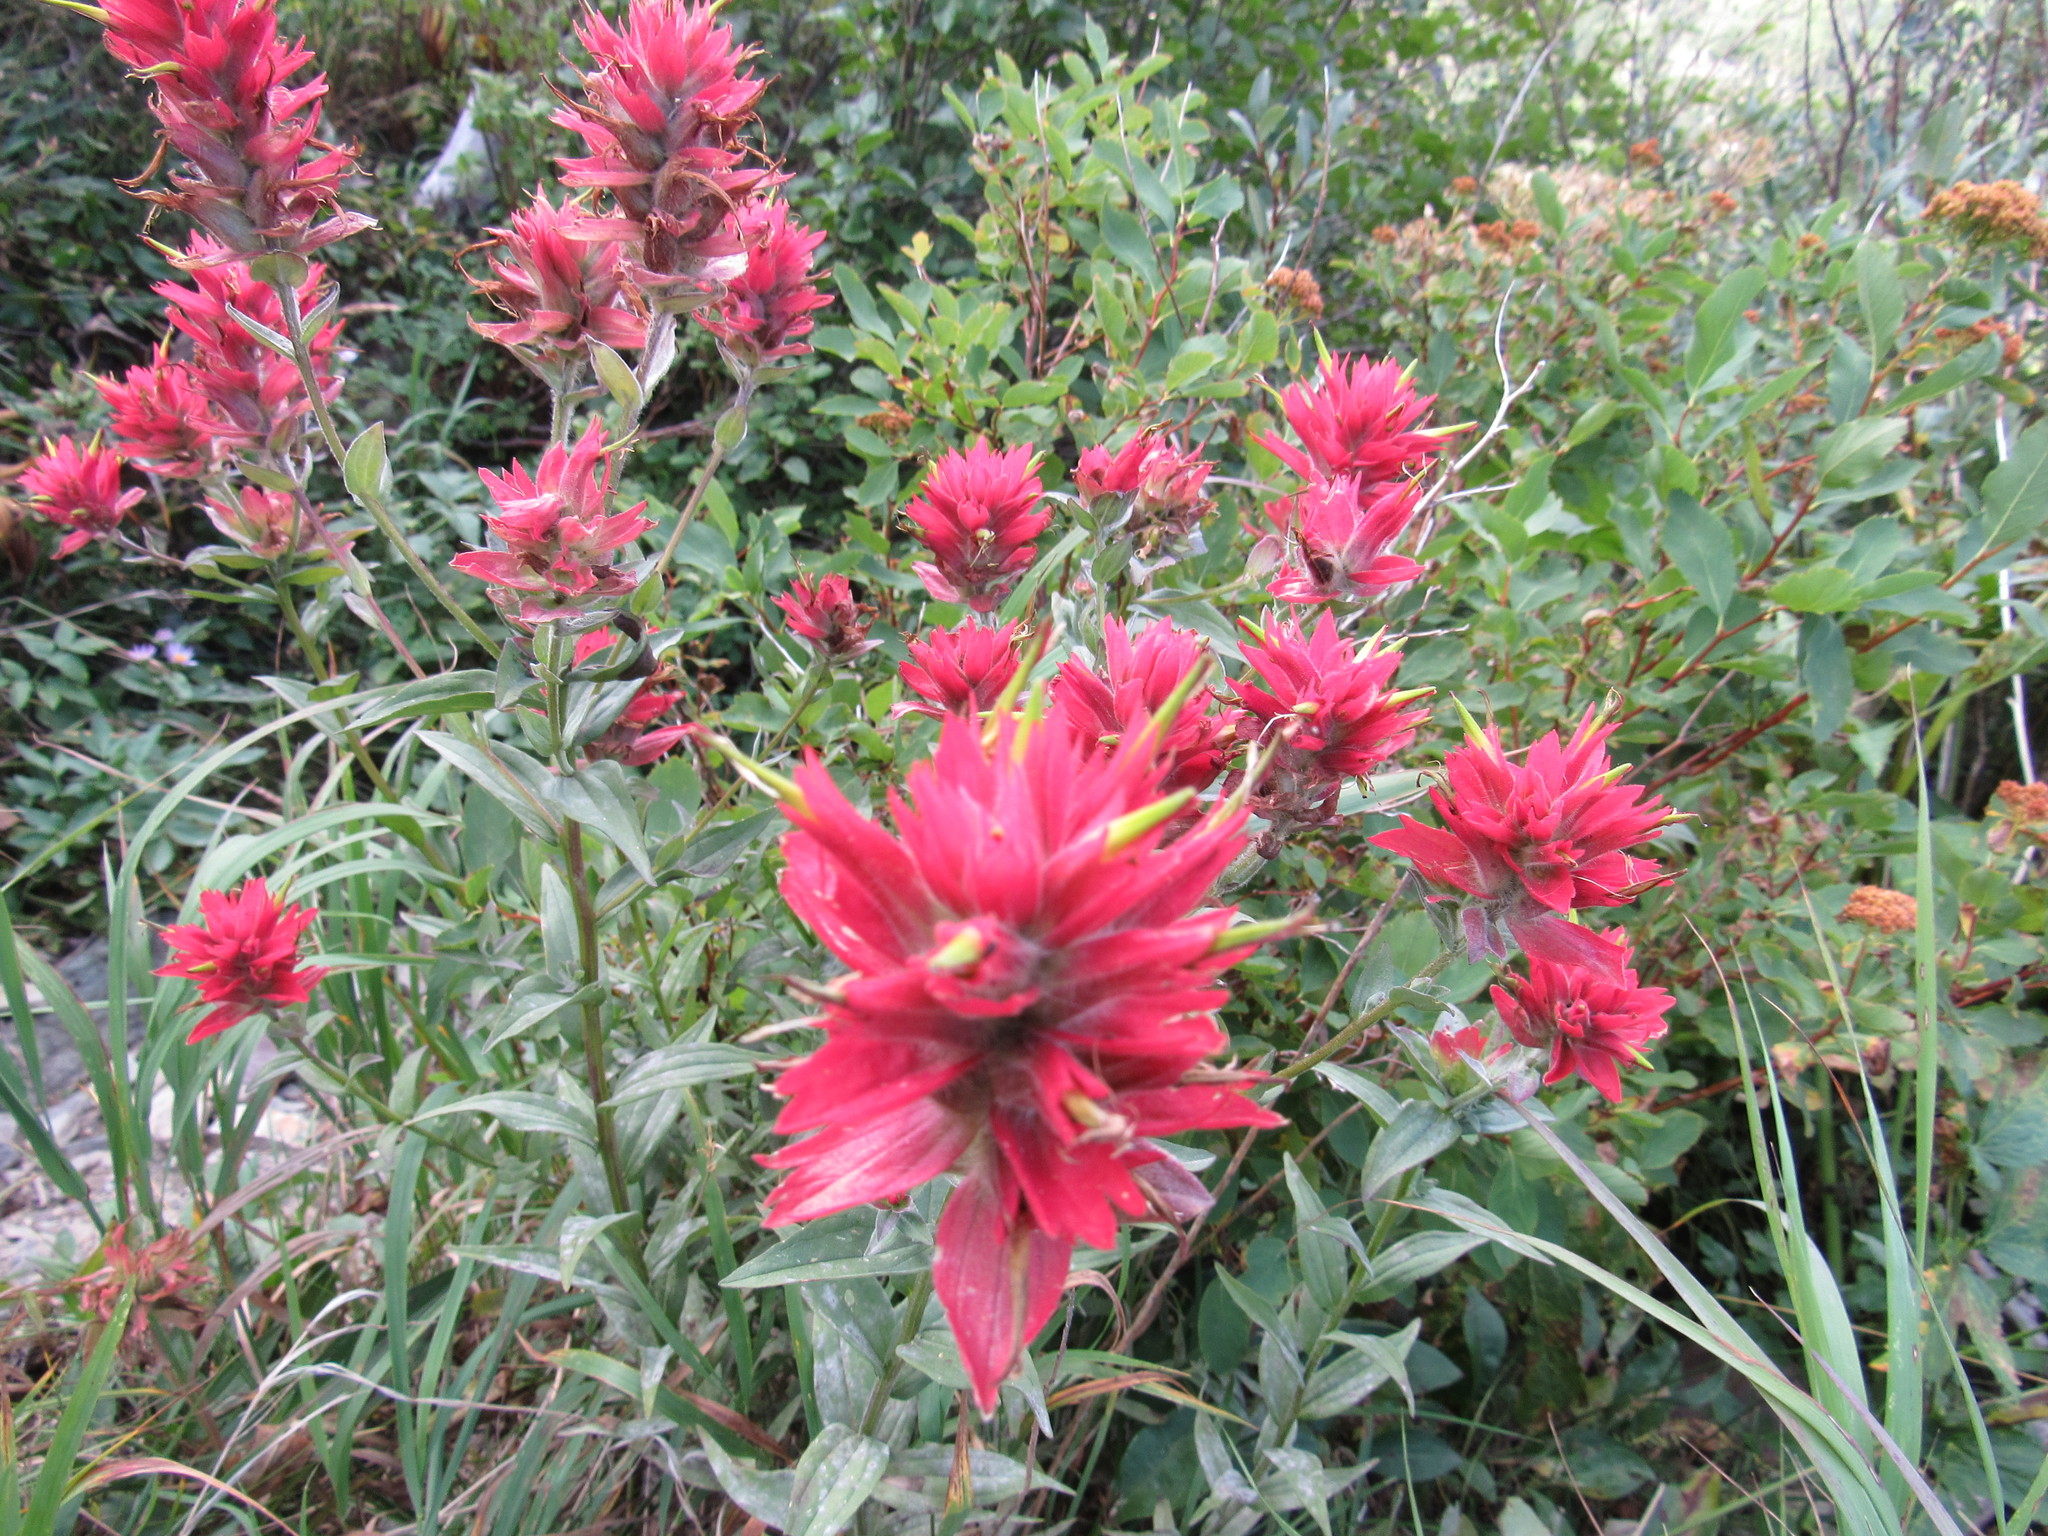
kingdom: Plantae
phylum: Tracheophyta
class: Magnoliopsida
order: Lamiales
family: Orobanchaceae
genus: Castilleja
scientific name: Castilleja miniata
